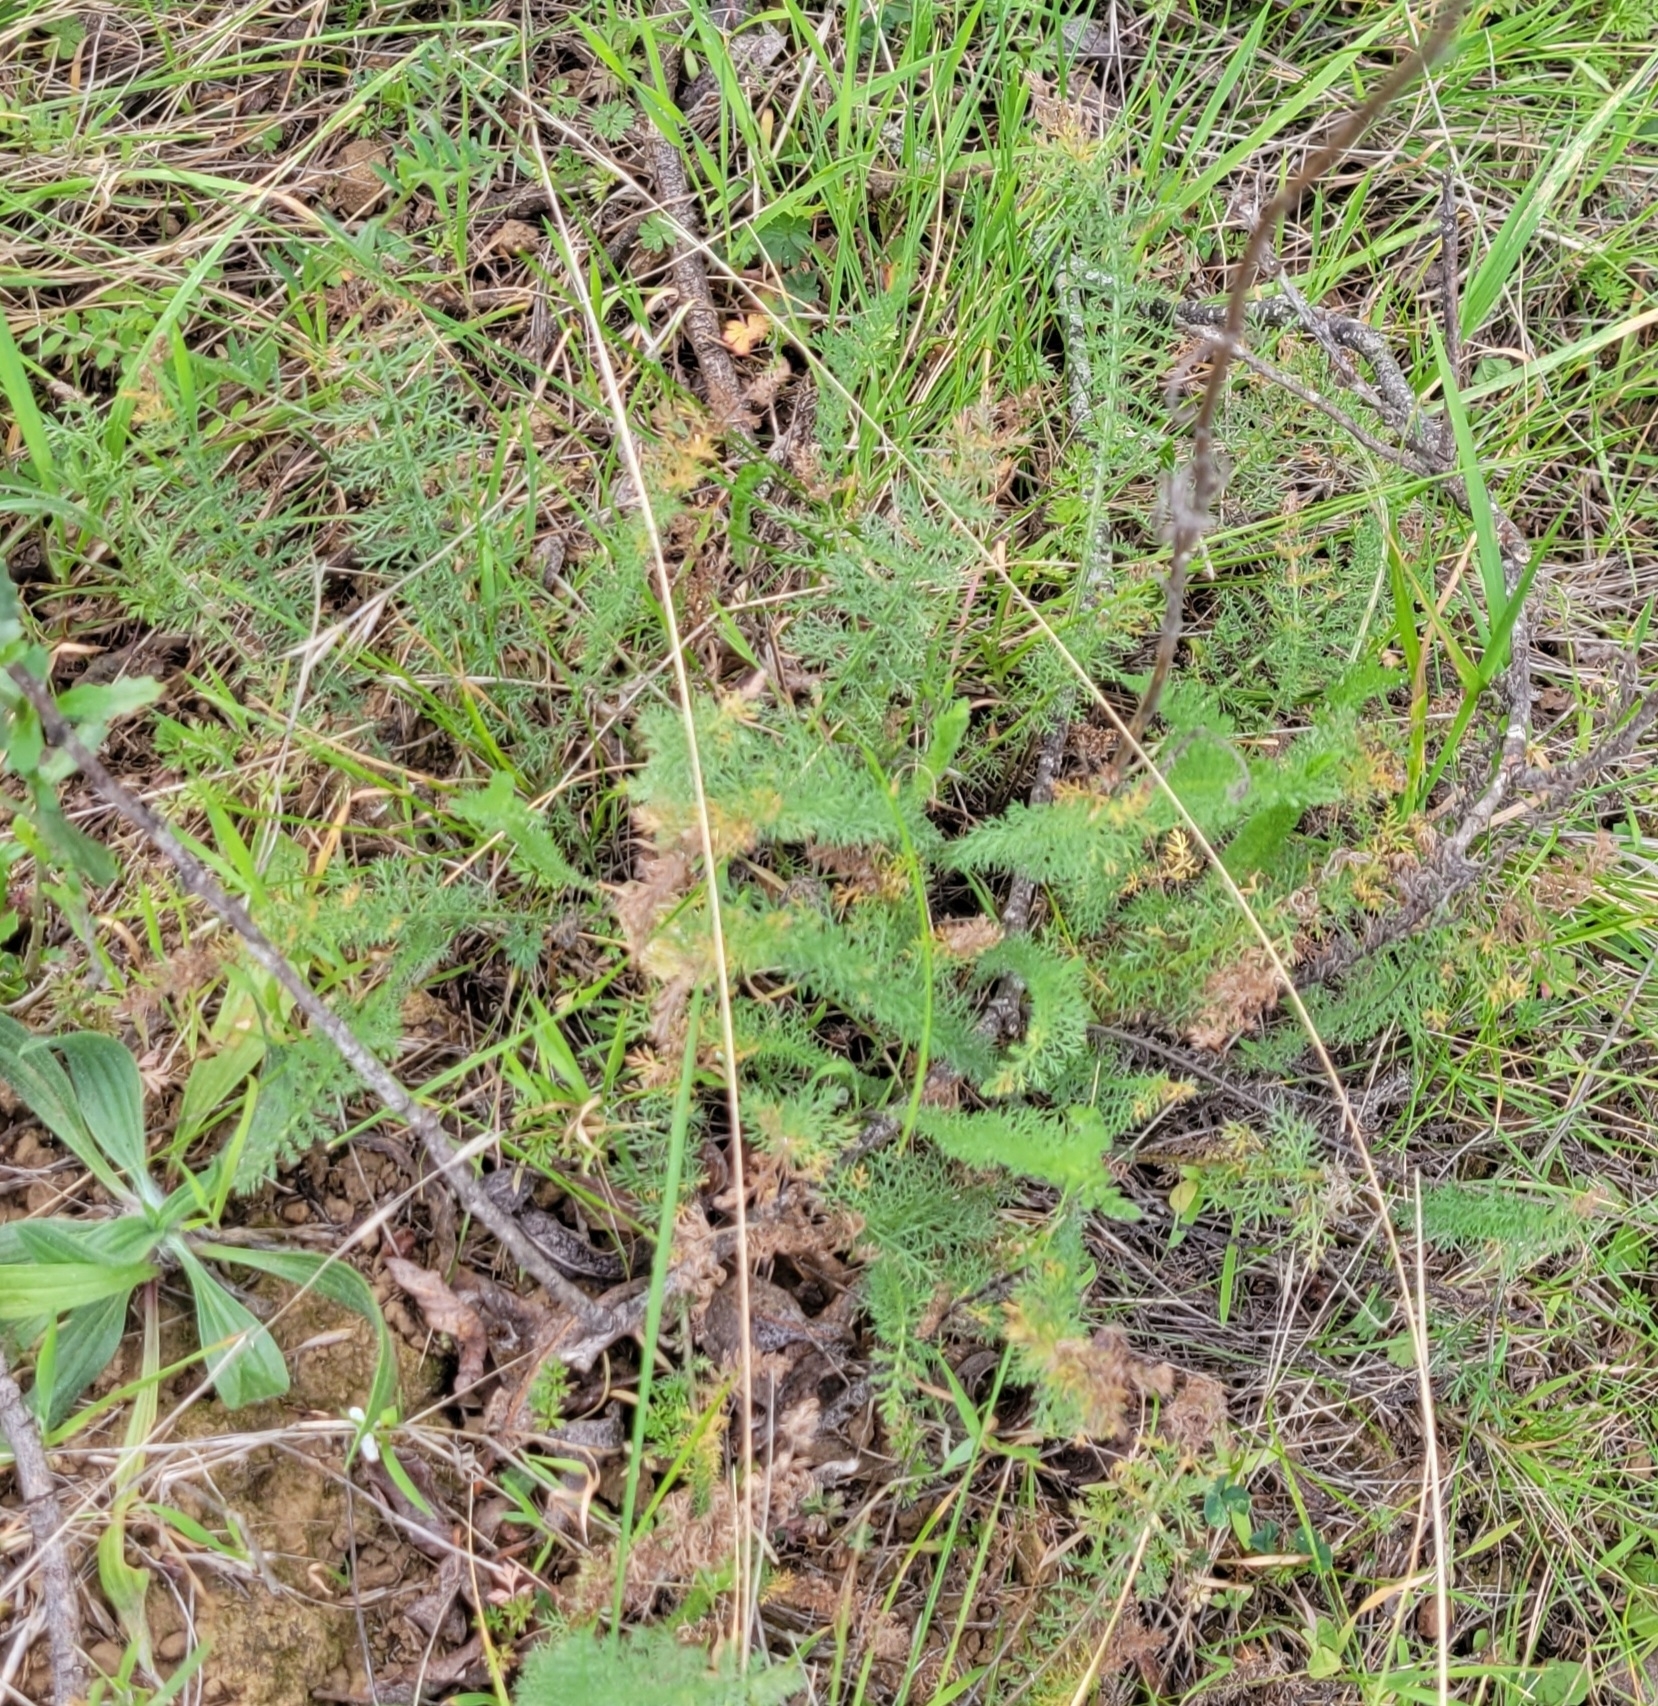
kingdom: Plantae
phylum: Tracheophyta
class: Magnoliopsida
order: Asterales
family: Asteraceae
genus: Achillea
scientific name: Achillea millefolium
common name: Yarrow
